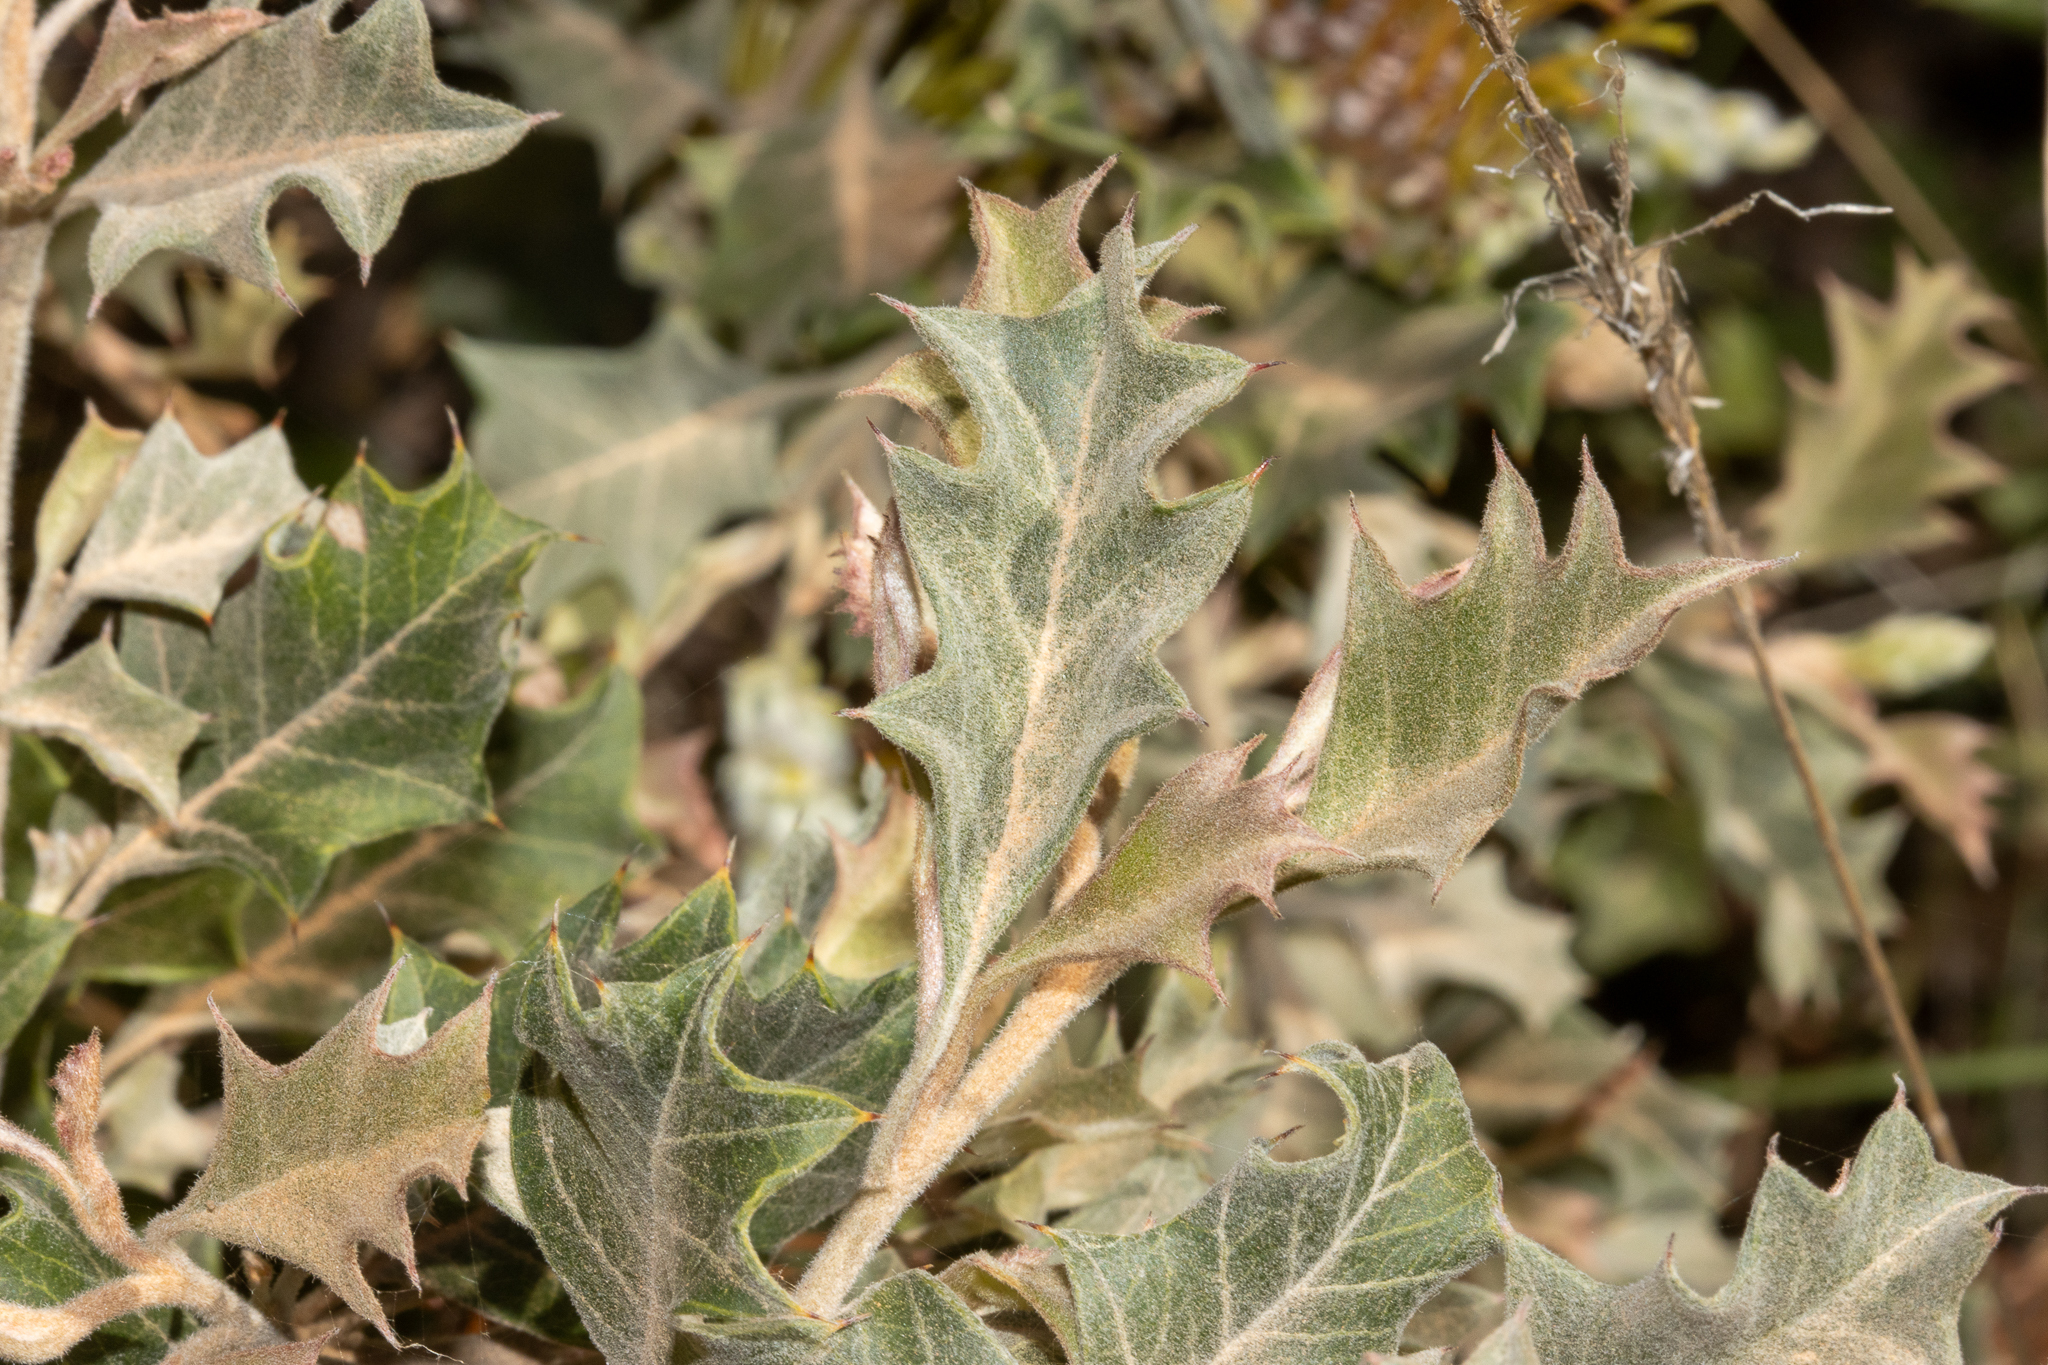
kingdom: Plantae
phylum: Tracheophyta
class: Magnoliopsida
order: Proteales
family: Proteaceae
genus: Grevillea
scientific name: Grevillea aquifolium
